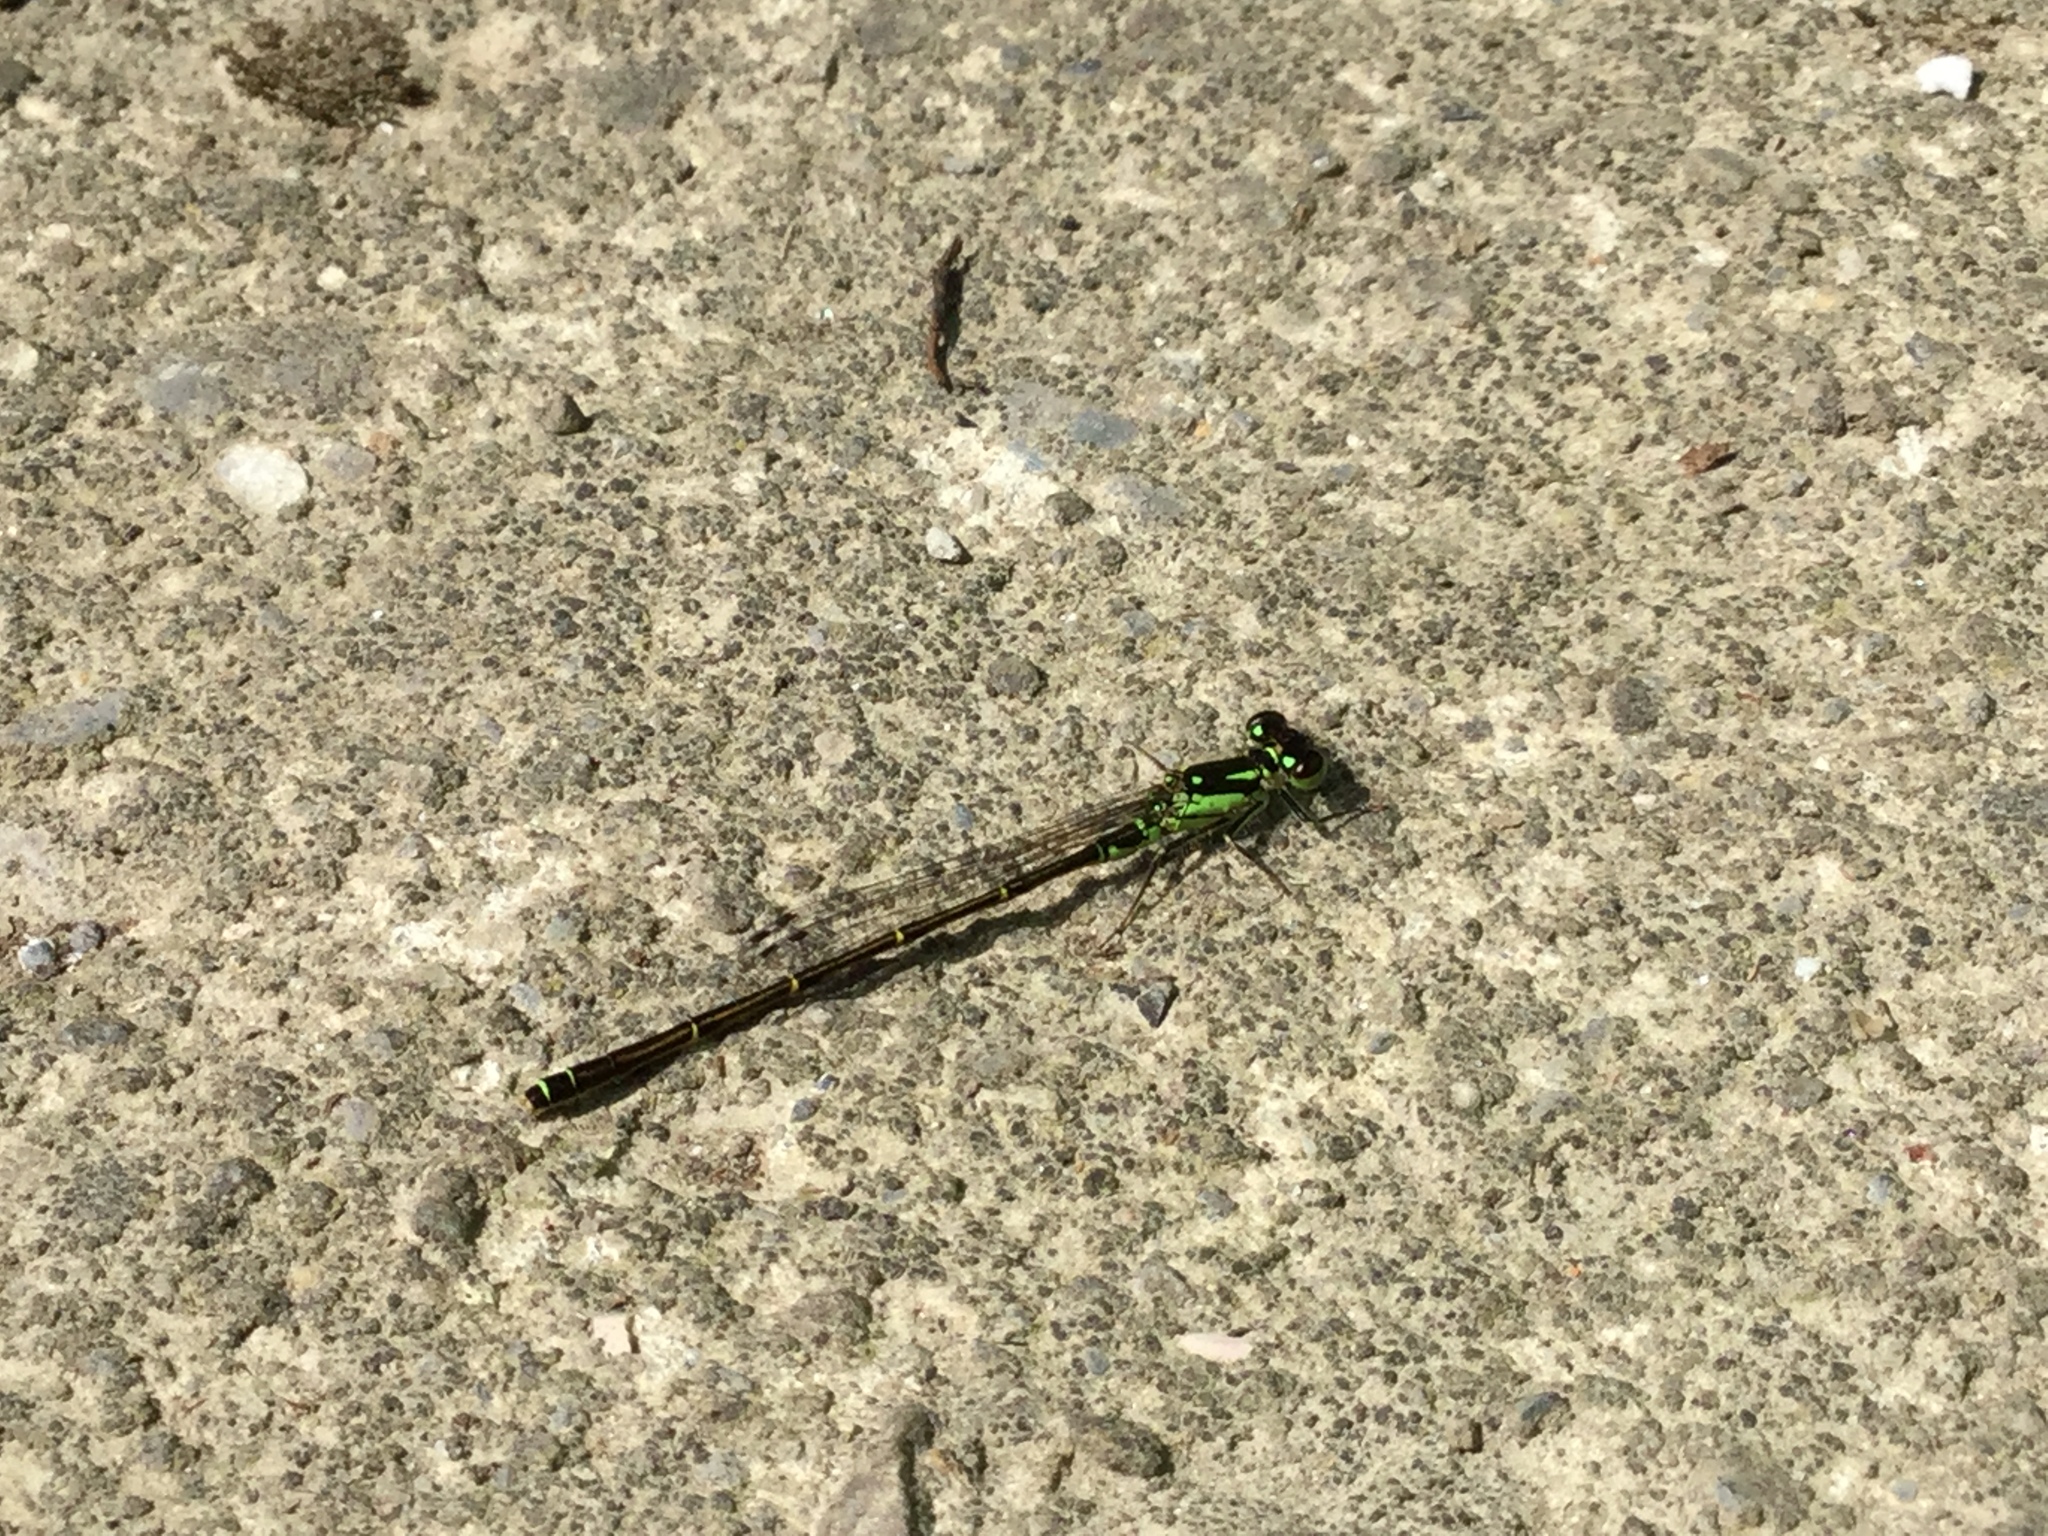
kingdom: Animalia
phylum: Arthropoda
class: Insecta
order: Odonata
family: Coenagrionidae
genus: Ischnura
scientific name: Ischnura posita
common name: Fragile forktail
